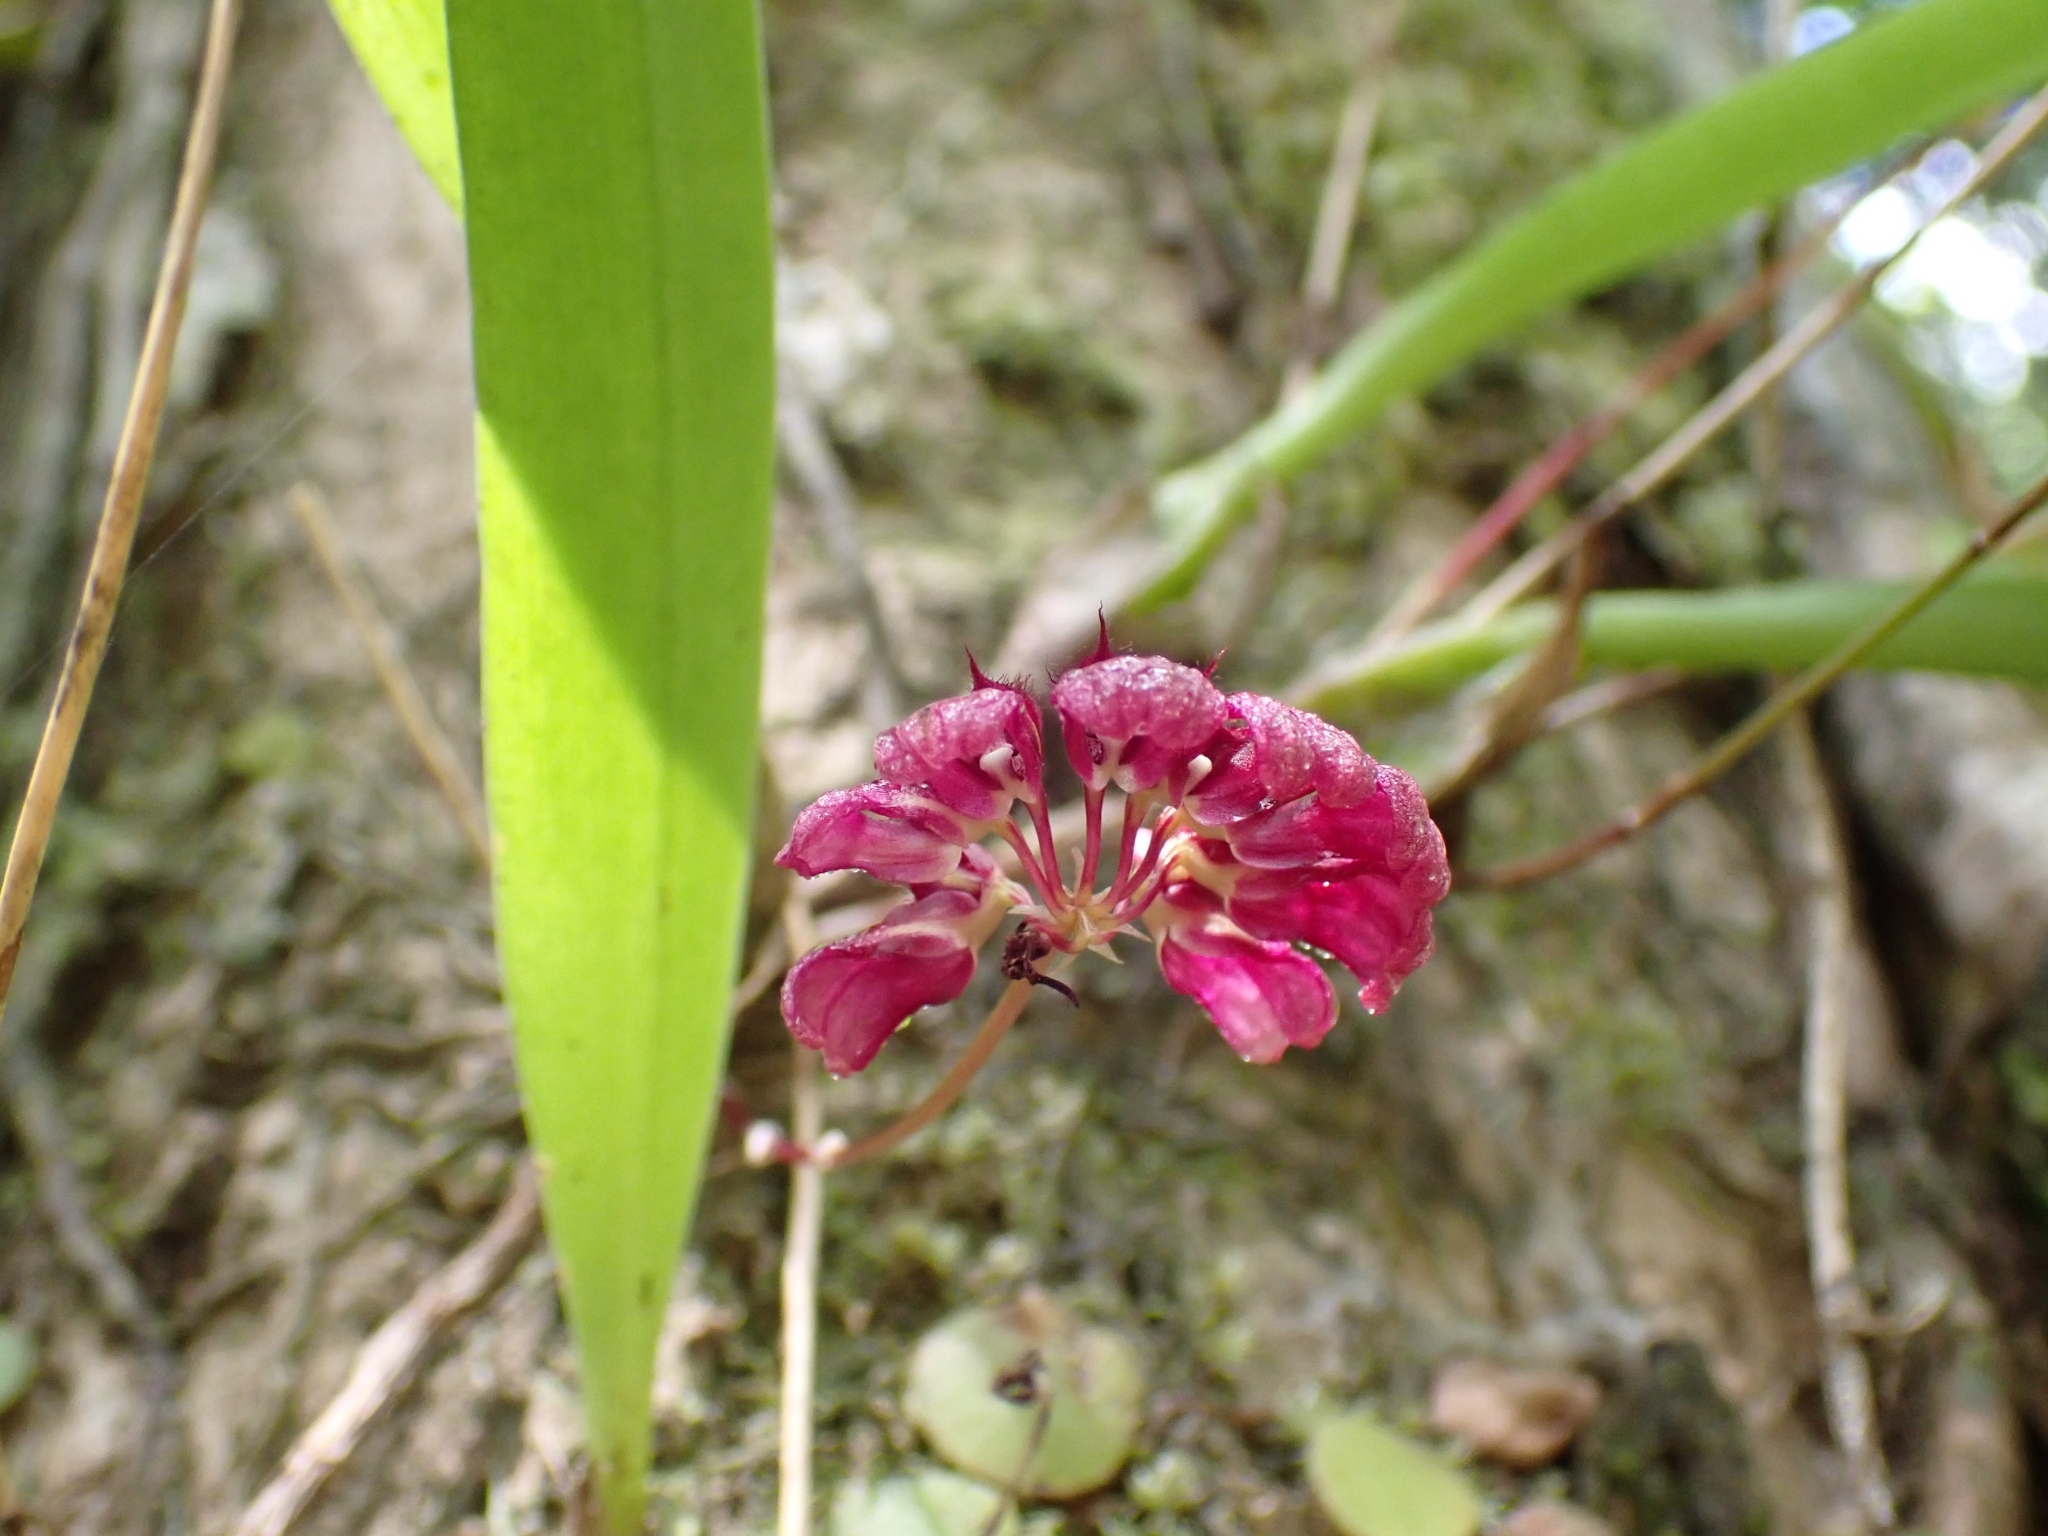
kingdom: Plantae
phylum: Tracheophyta
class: Liliopsida
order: Asparagales
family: Orchidaceae
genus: Bulbophyllum
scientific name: Bulbophyllum corolliferum
